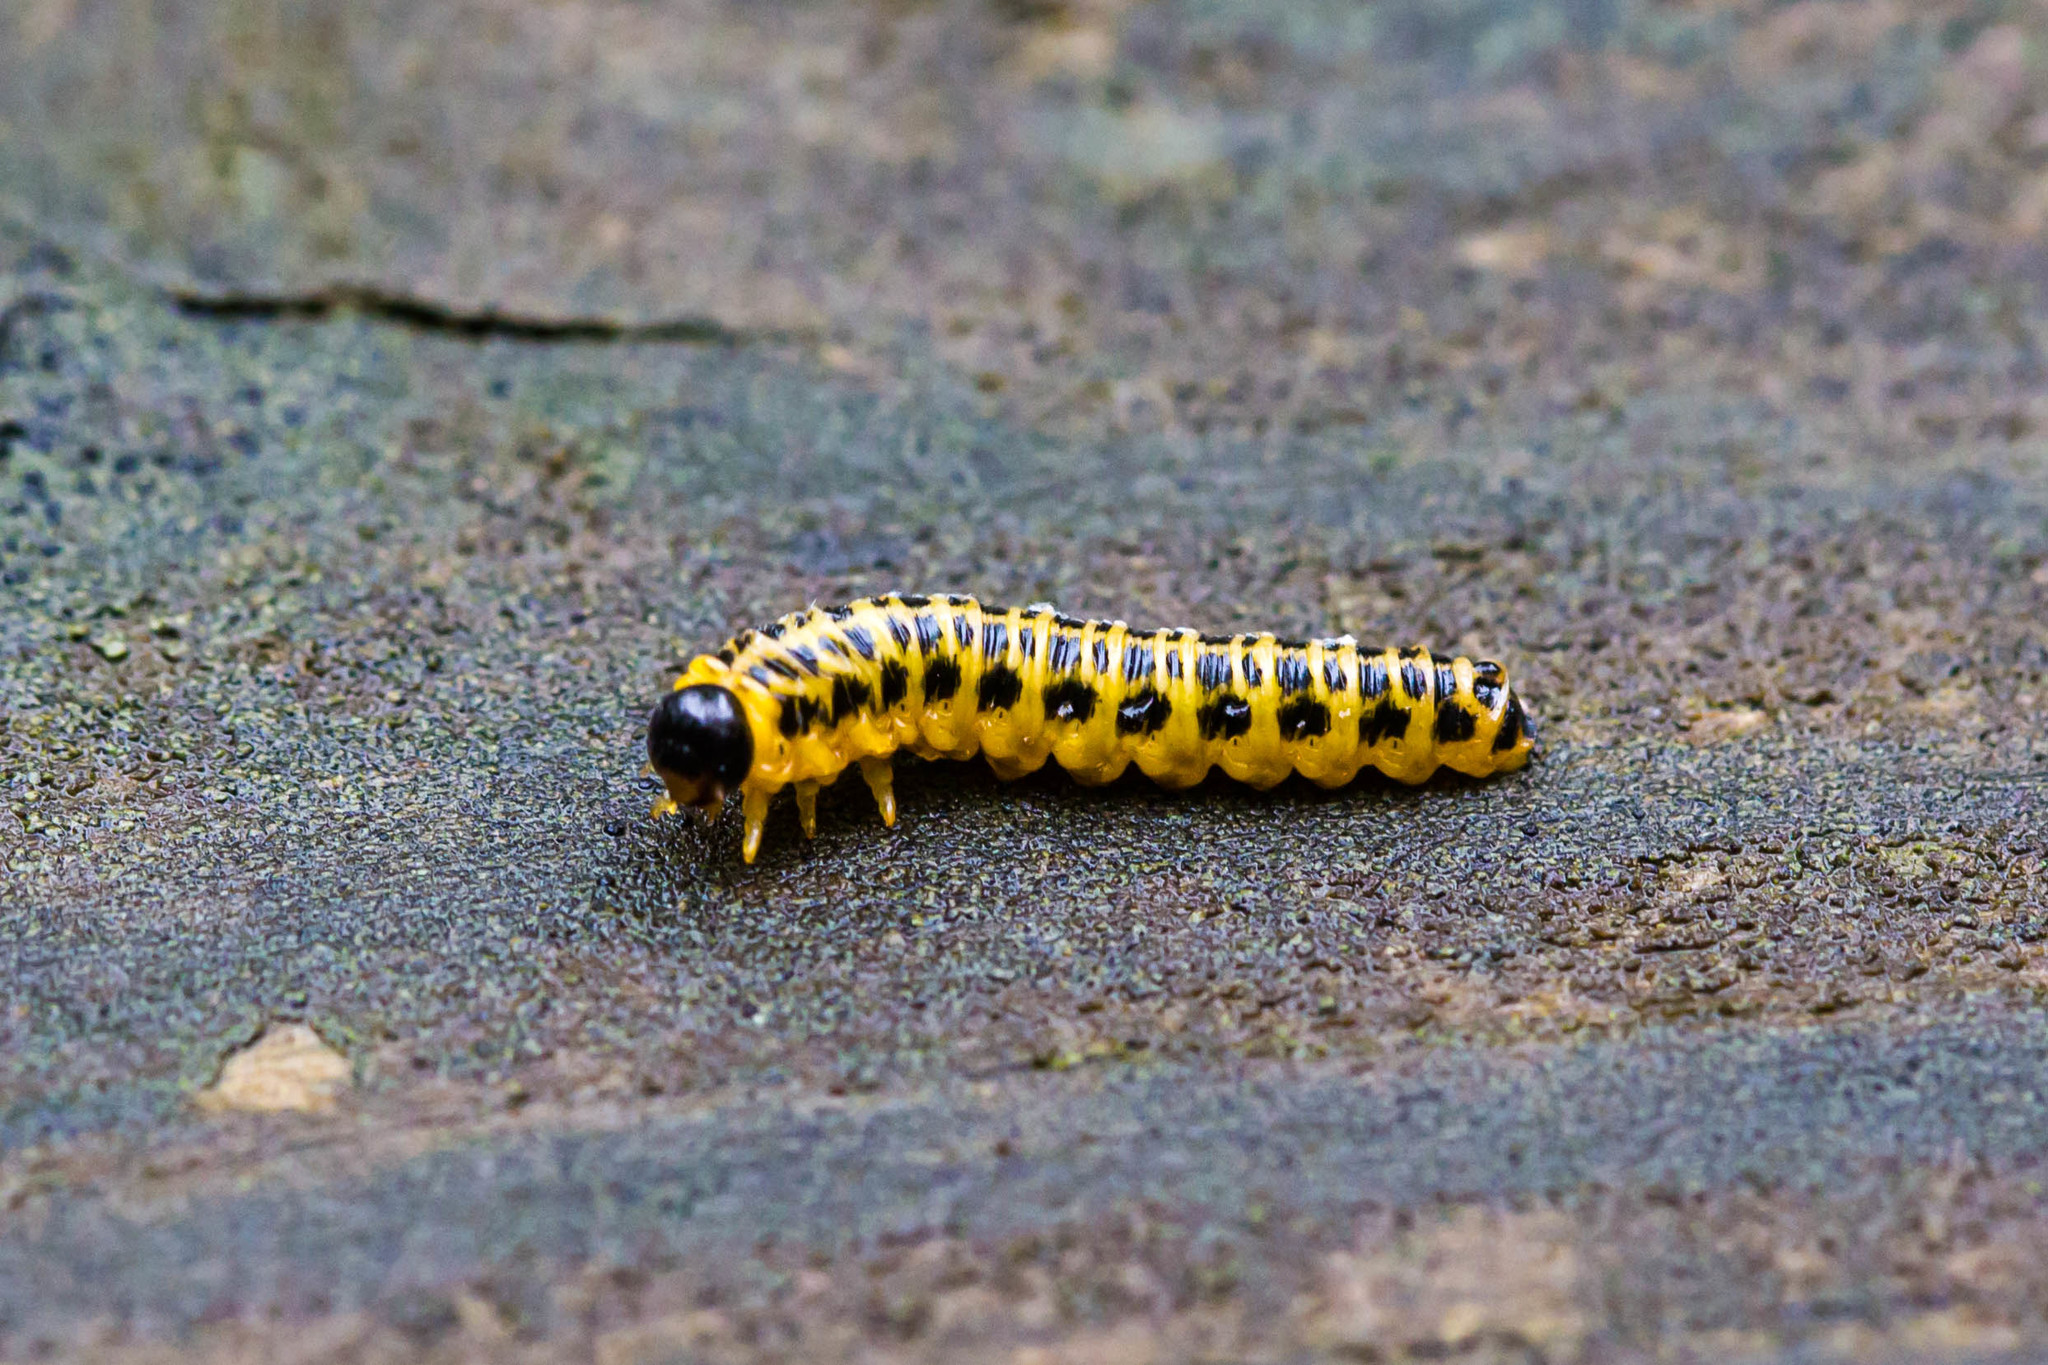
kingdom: Animalia
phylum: Arthropoda
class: Insecta
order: Hymenoptera
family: Tenthredinidae
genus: Macremphytus
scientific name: Macremphytus testaceus
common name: Dogwood sawfly
